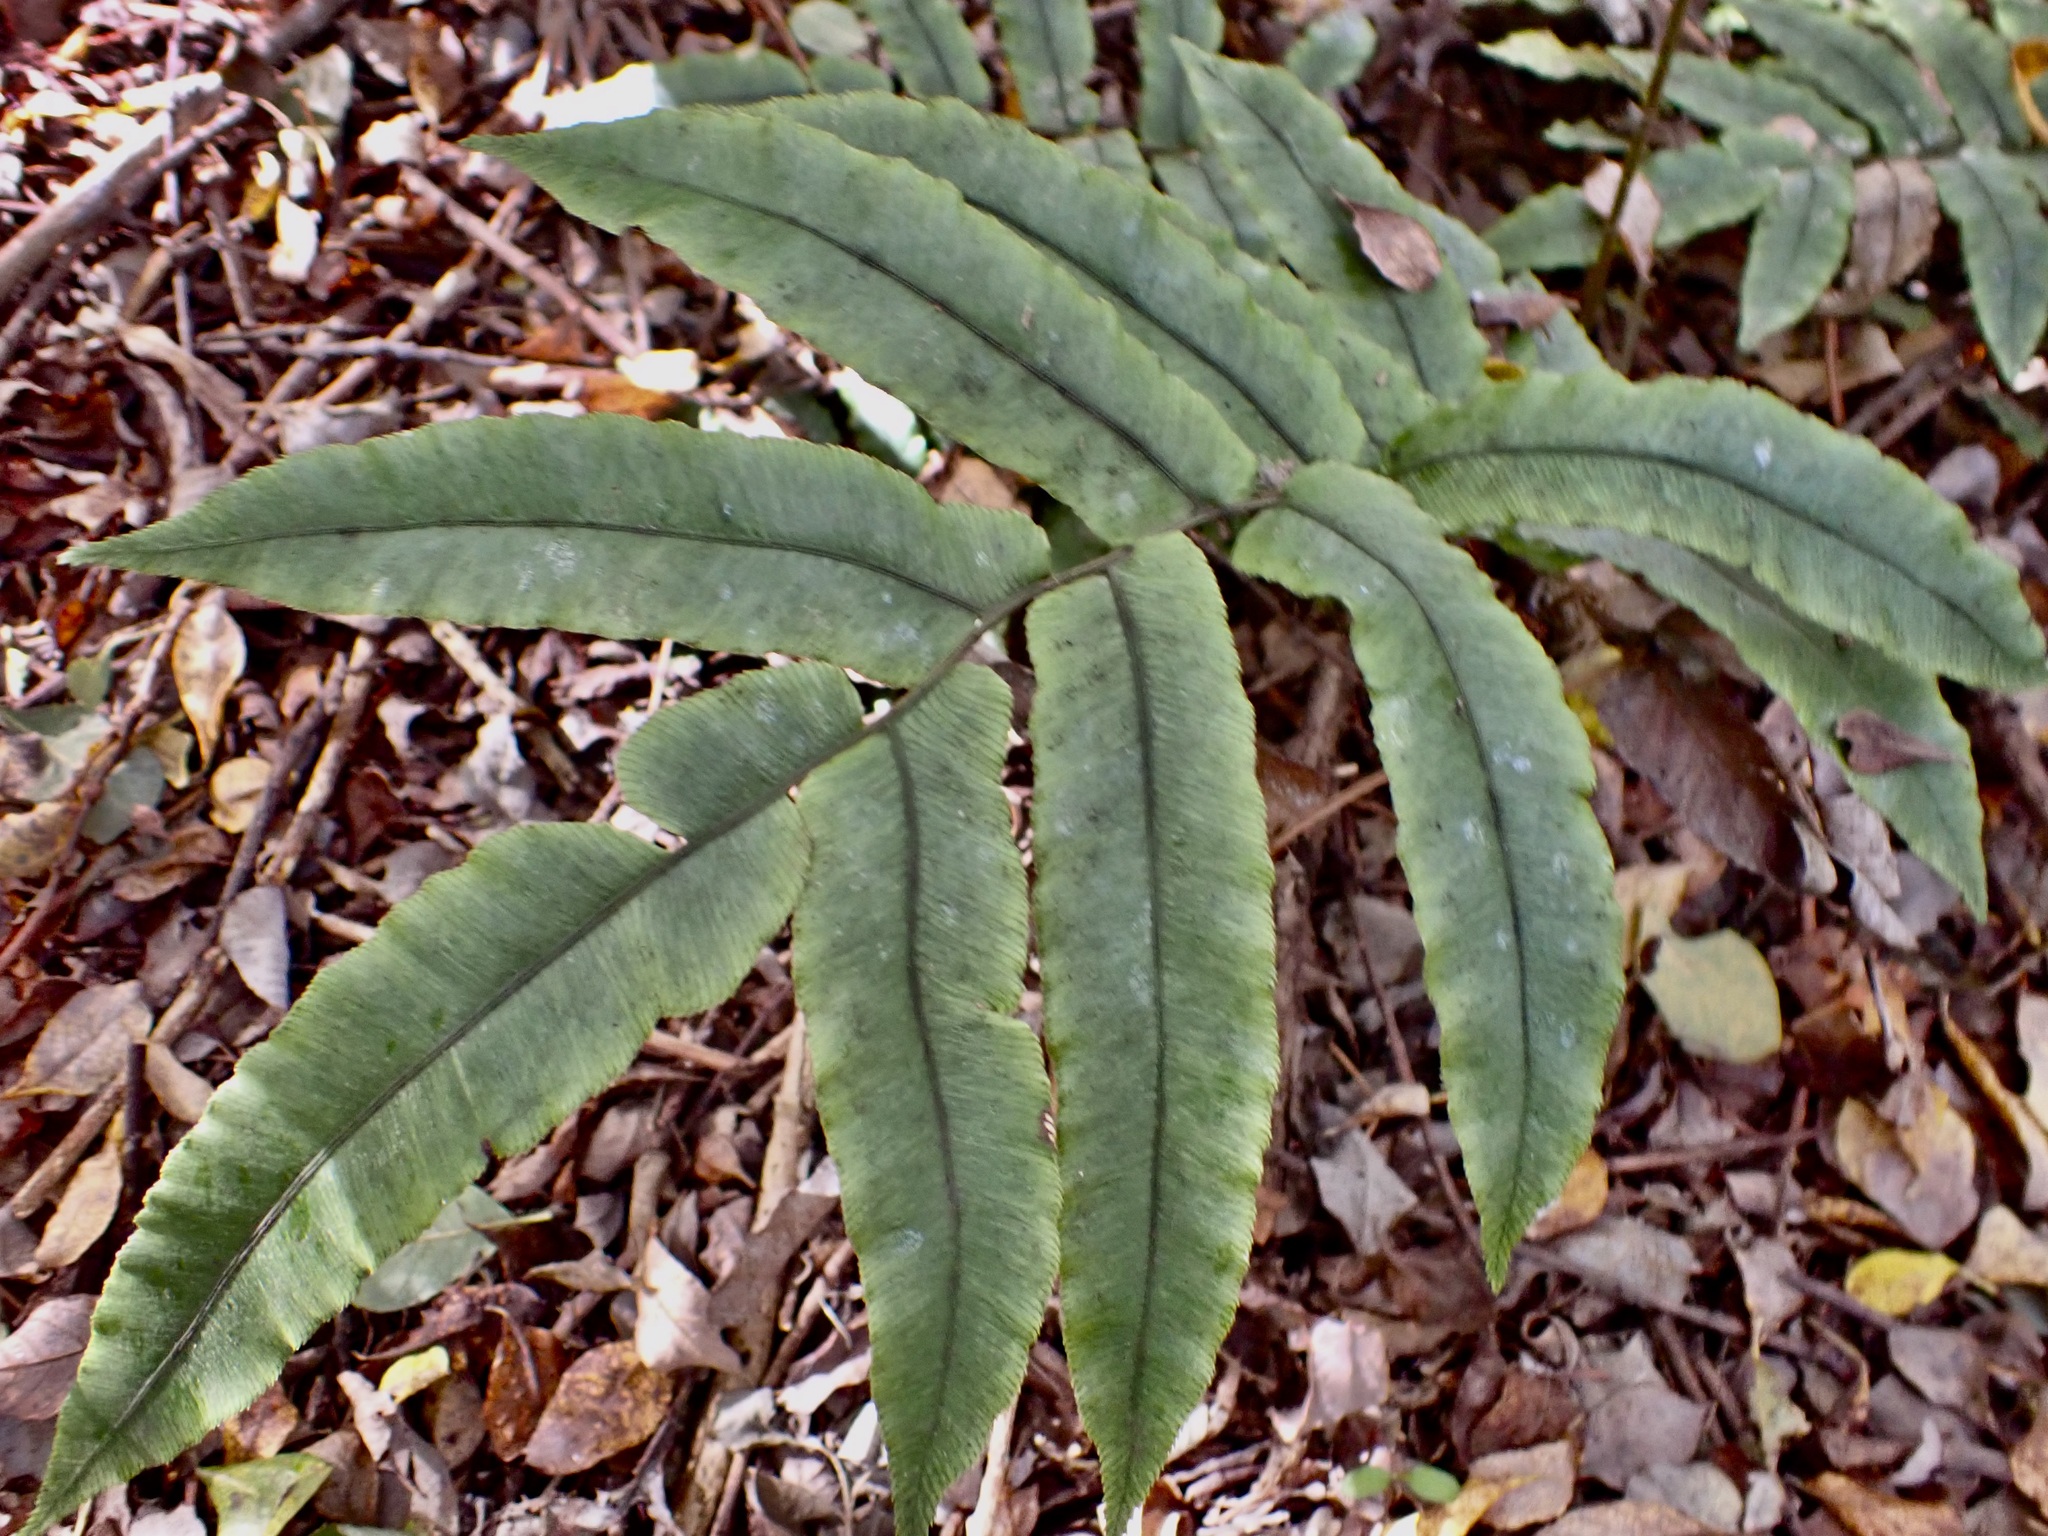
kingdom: Plantae
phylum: Tracheophyta
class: Polypodiopsida
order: Polypodiales
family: Blechnaceae
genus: Parablechnum
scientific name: Parablechnum procerum
